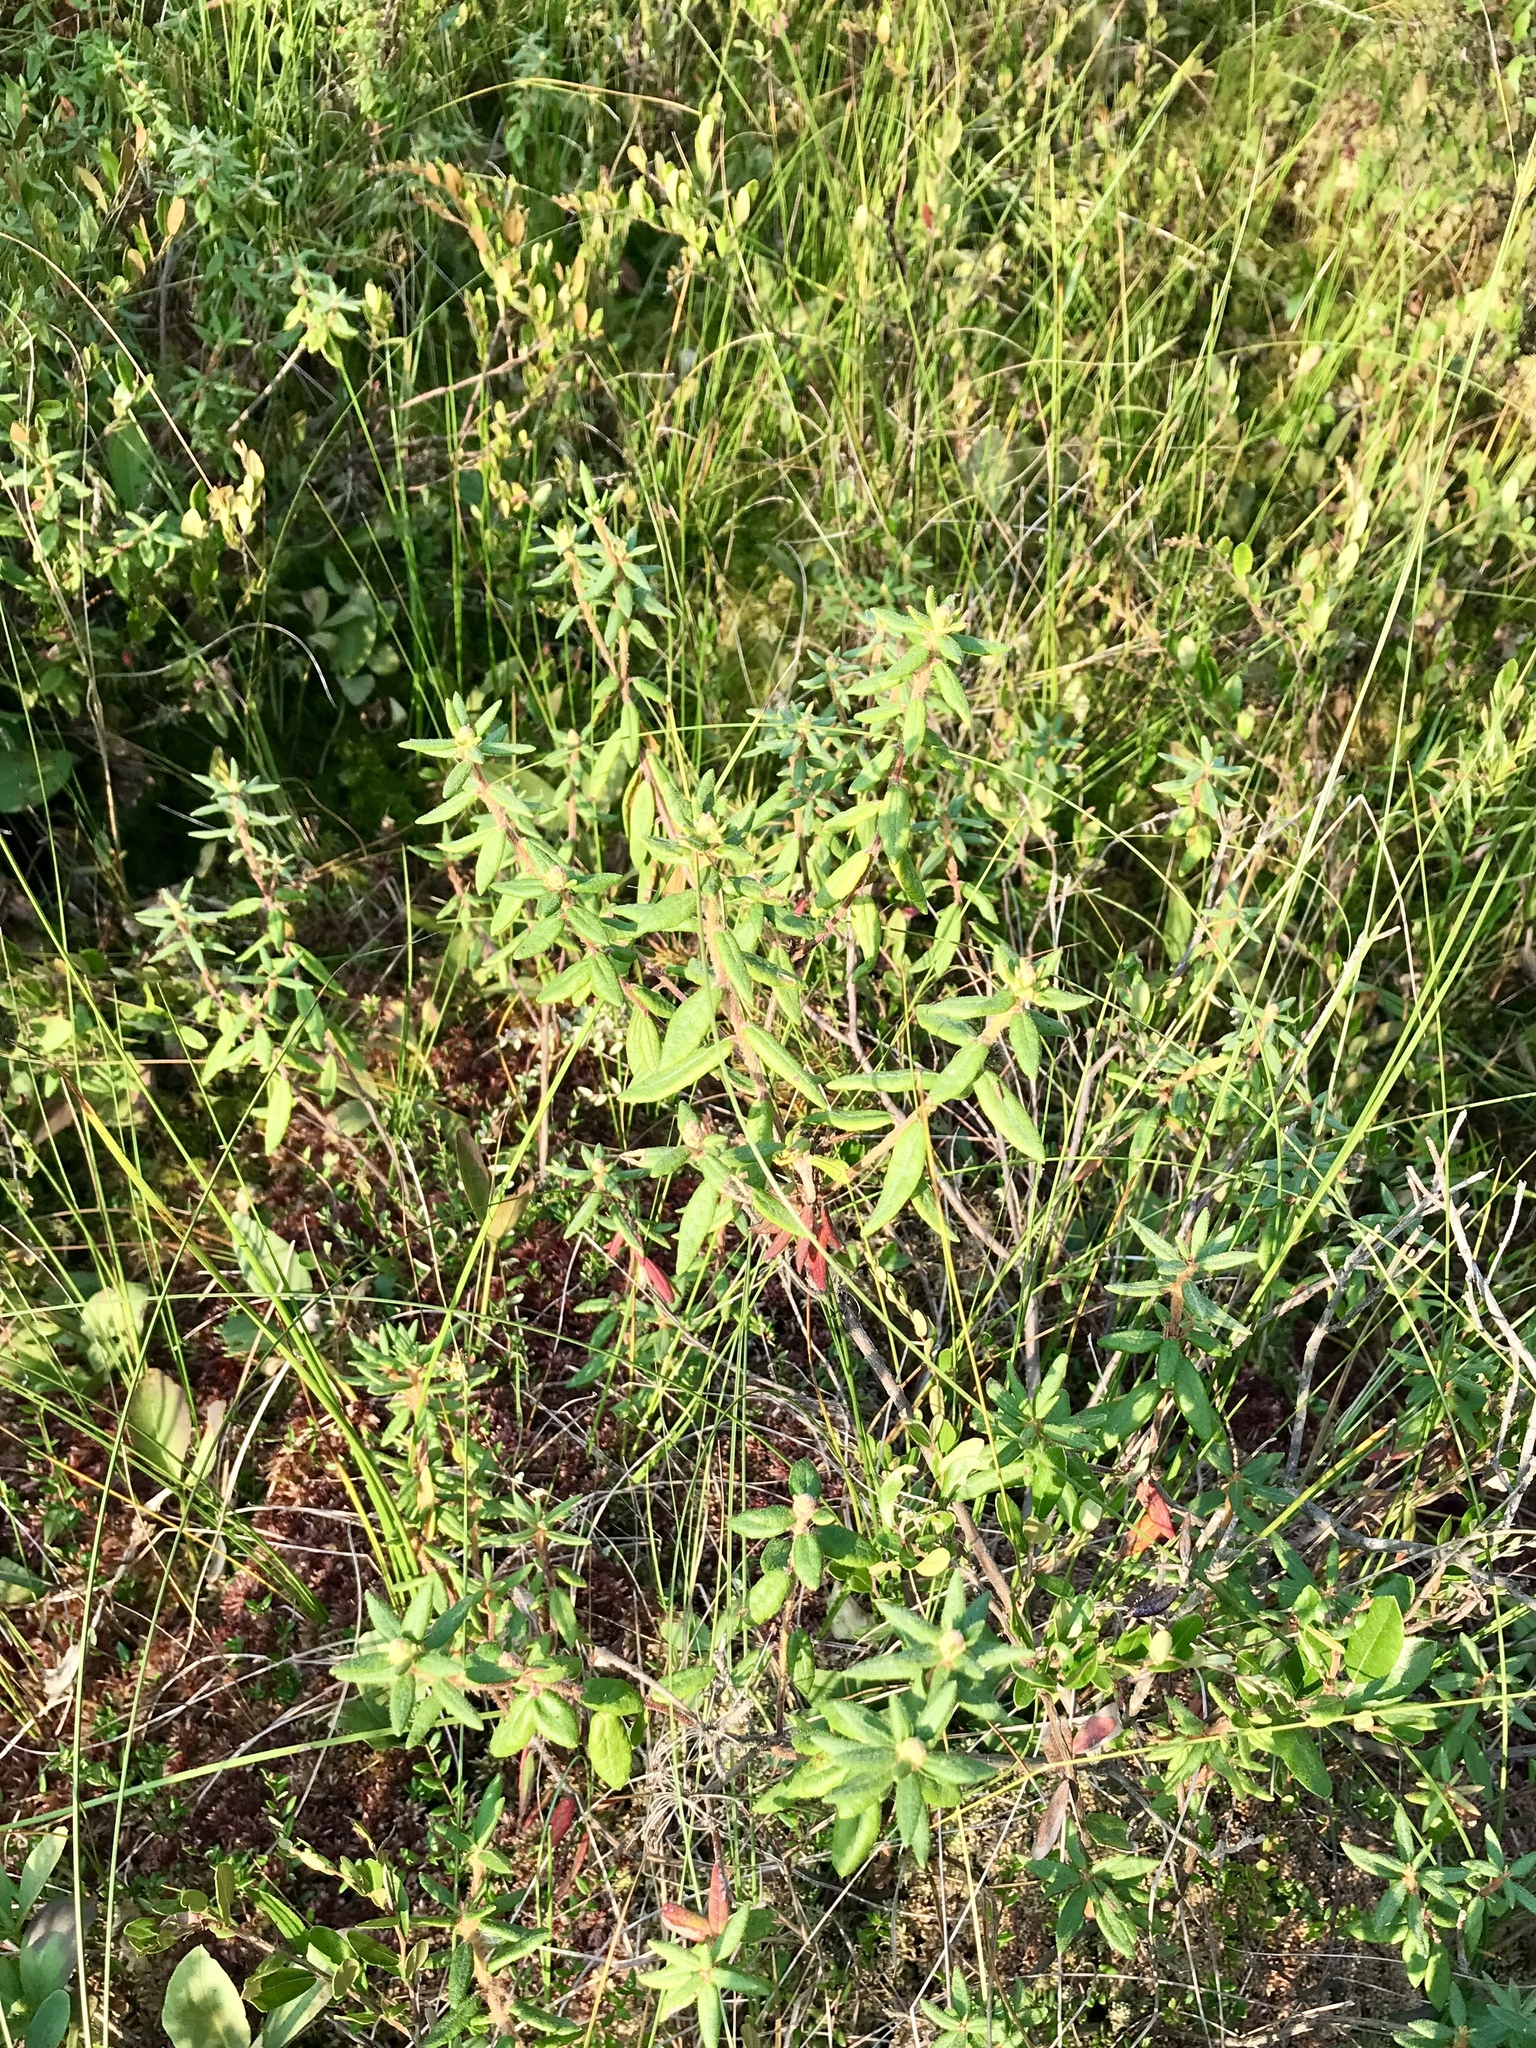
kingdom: Plantae
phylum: Tracheophyta
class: Magnoliopsida
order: Ericales
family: Ericaceae
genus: Rhododendron
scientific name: Rhododendron groenlandicum
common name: Bog labrador tea
